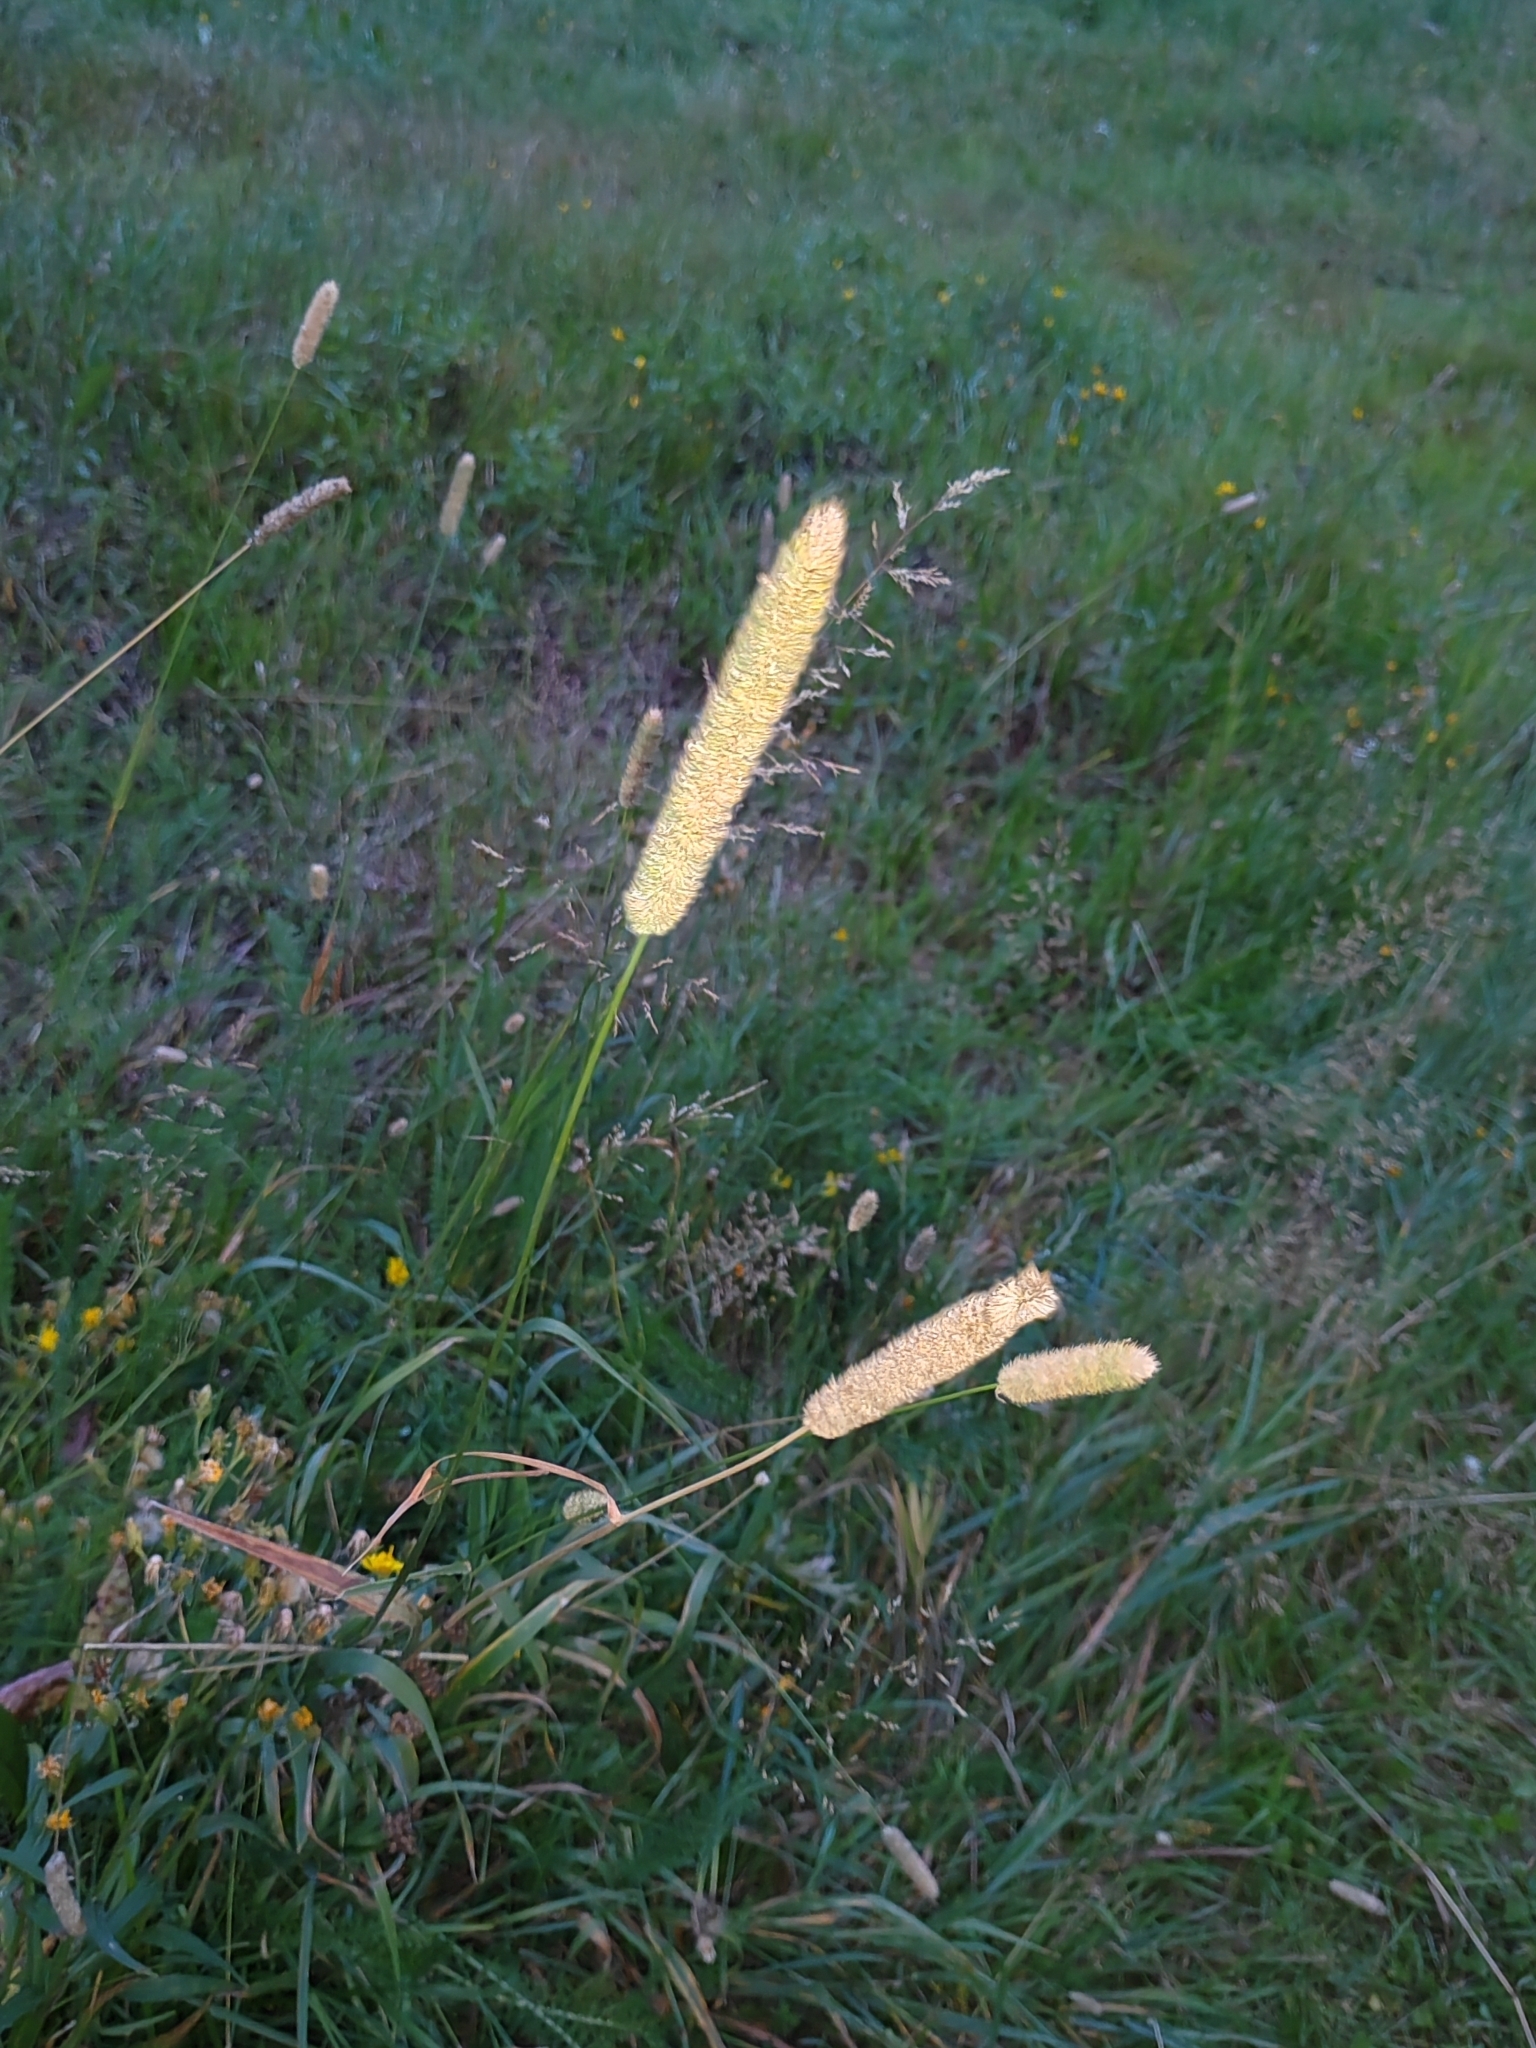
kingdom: Plantae
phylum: Tracheophyta
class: Liliopsida
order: Poales
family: Poaceae
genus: Phleum
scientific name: Phleum pratense
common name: Timothy grass
